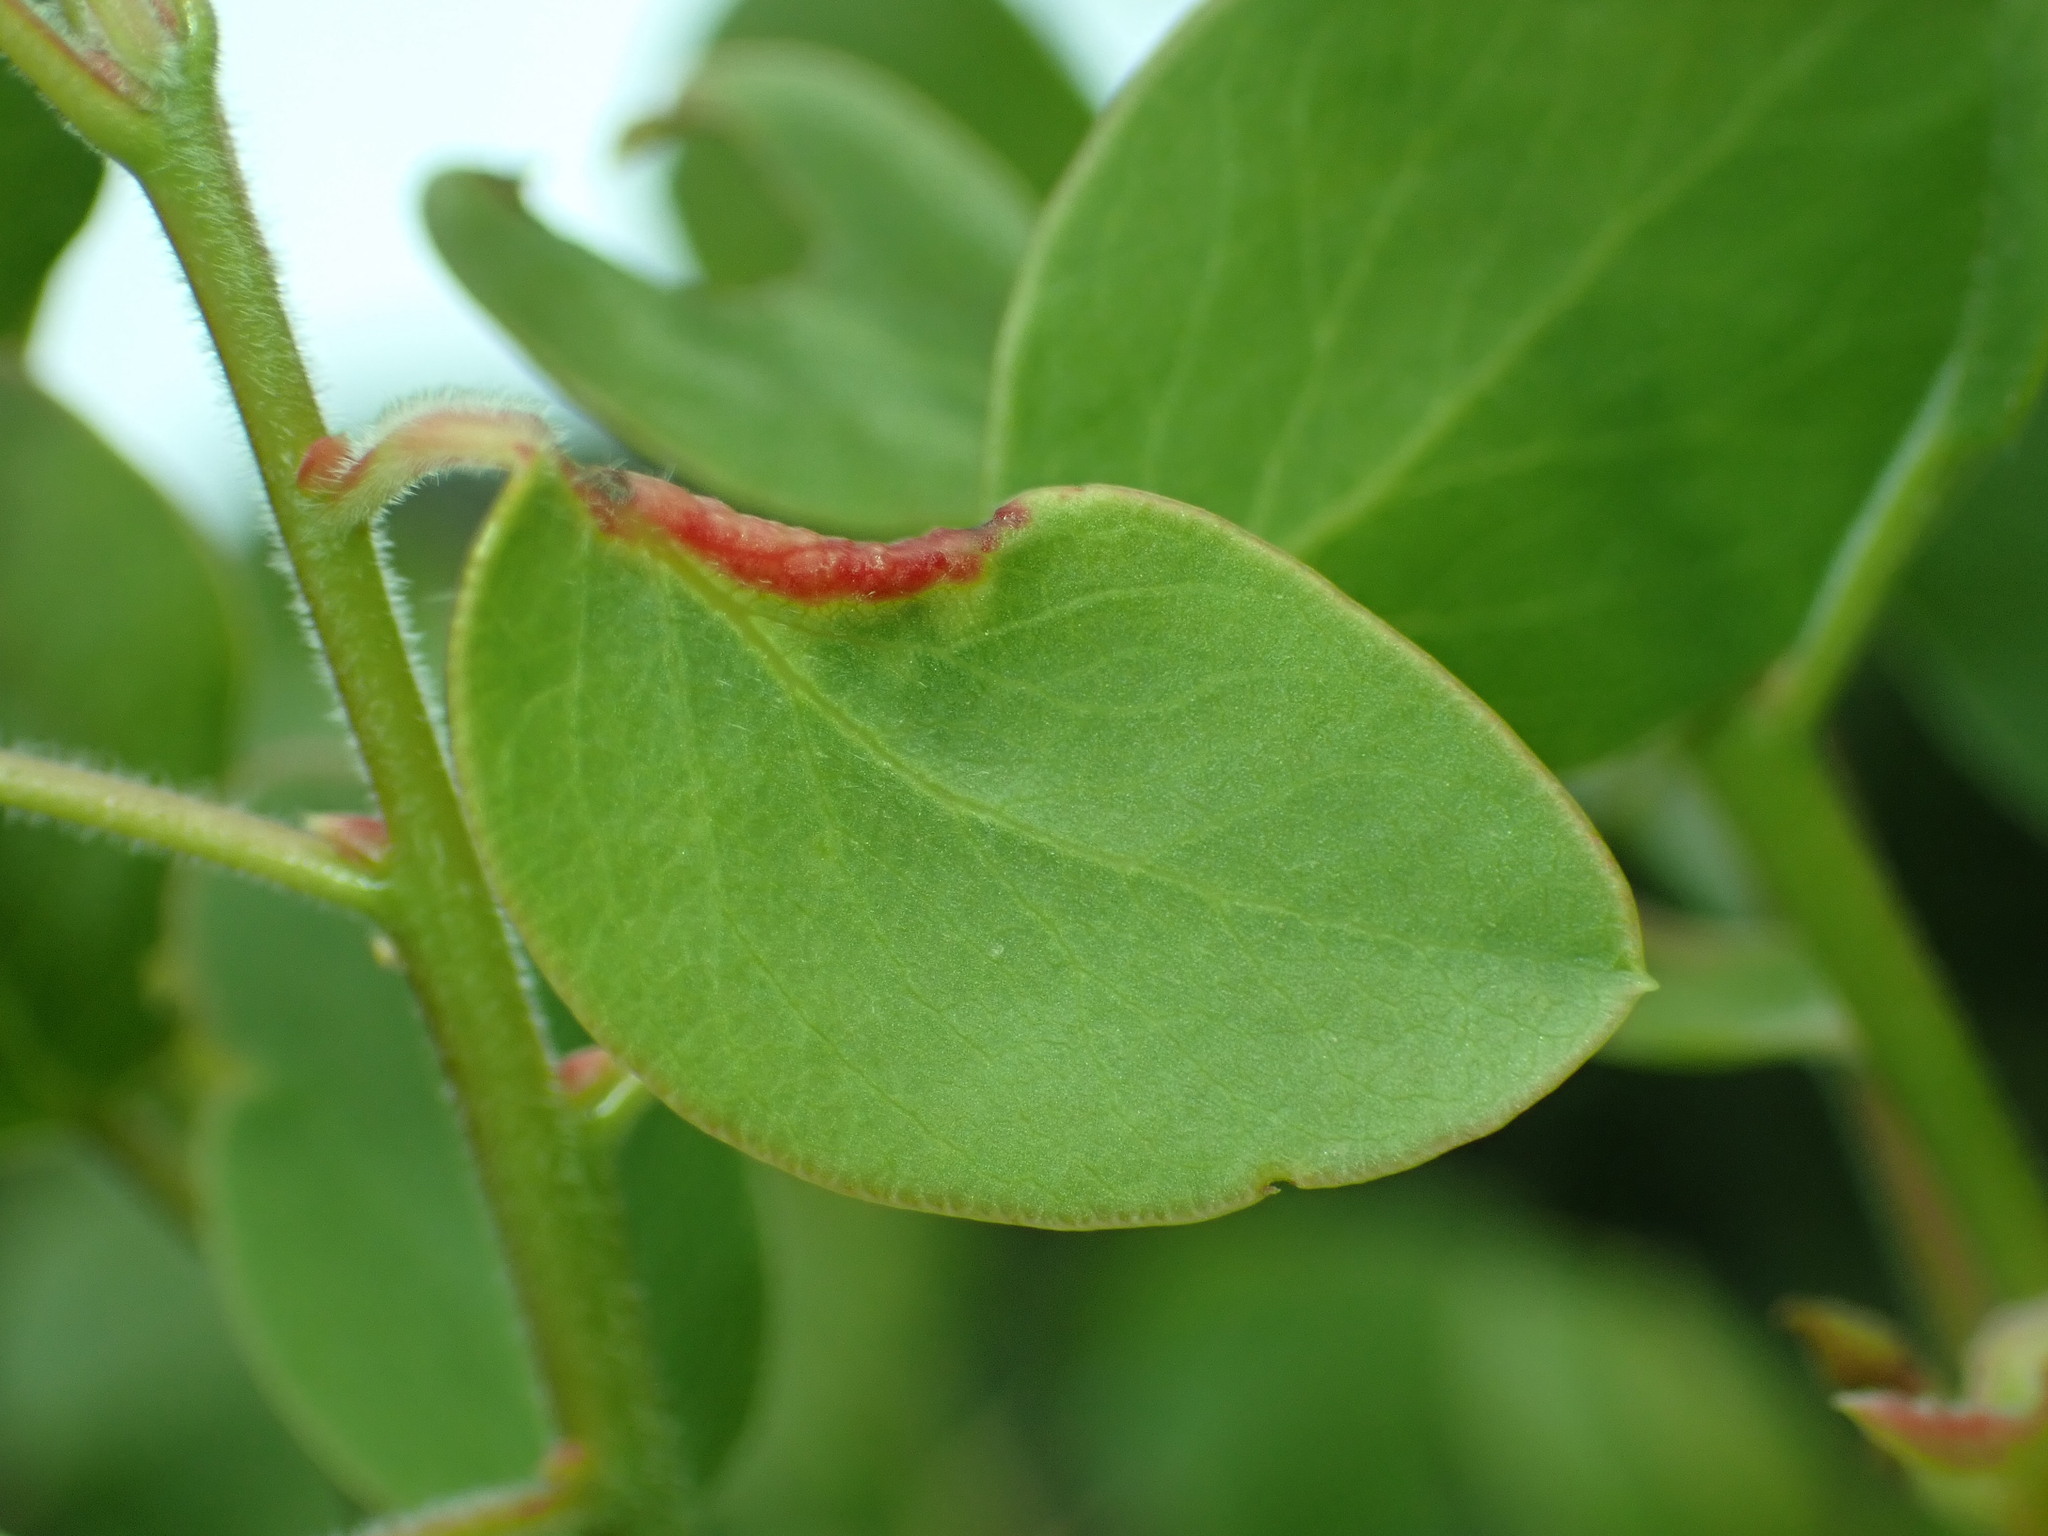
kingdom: Animalia
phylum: Arthropoda
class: Insecta
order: Hemiptera
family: Aphididae
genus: Tamalia
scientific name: Tamalia
